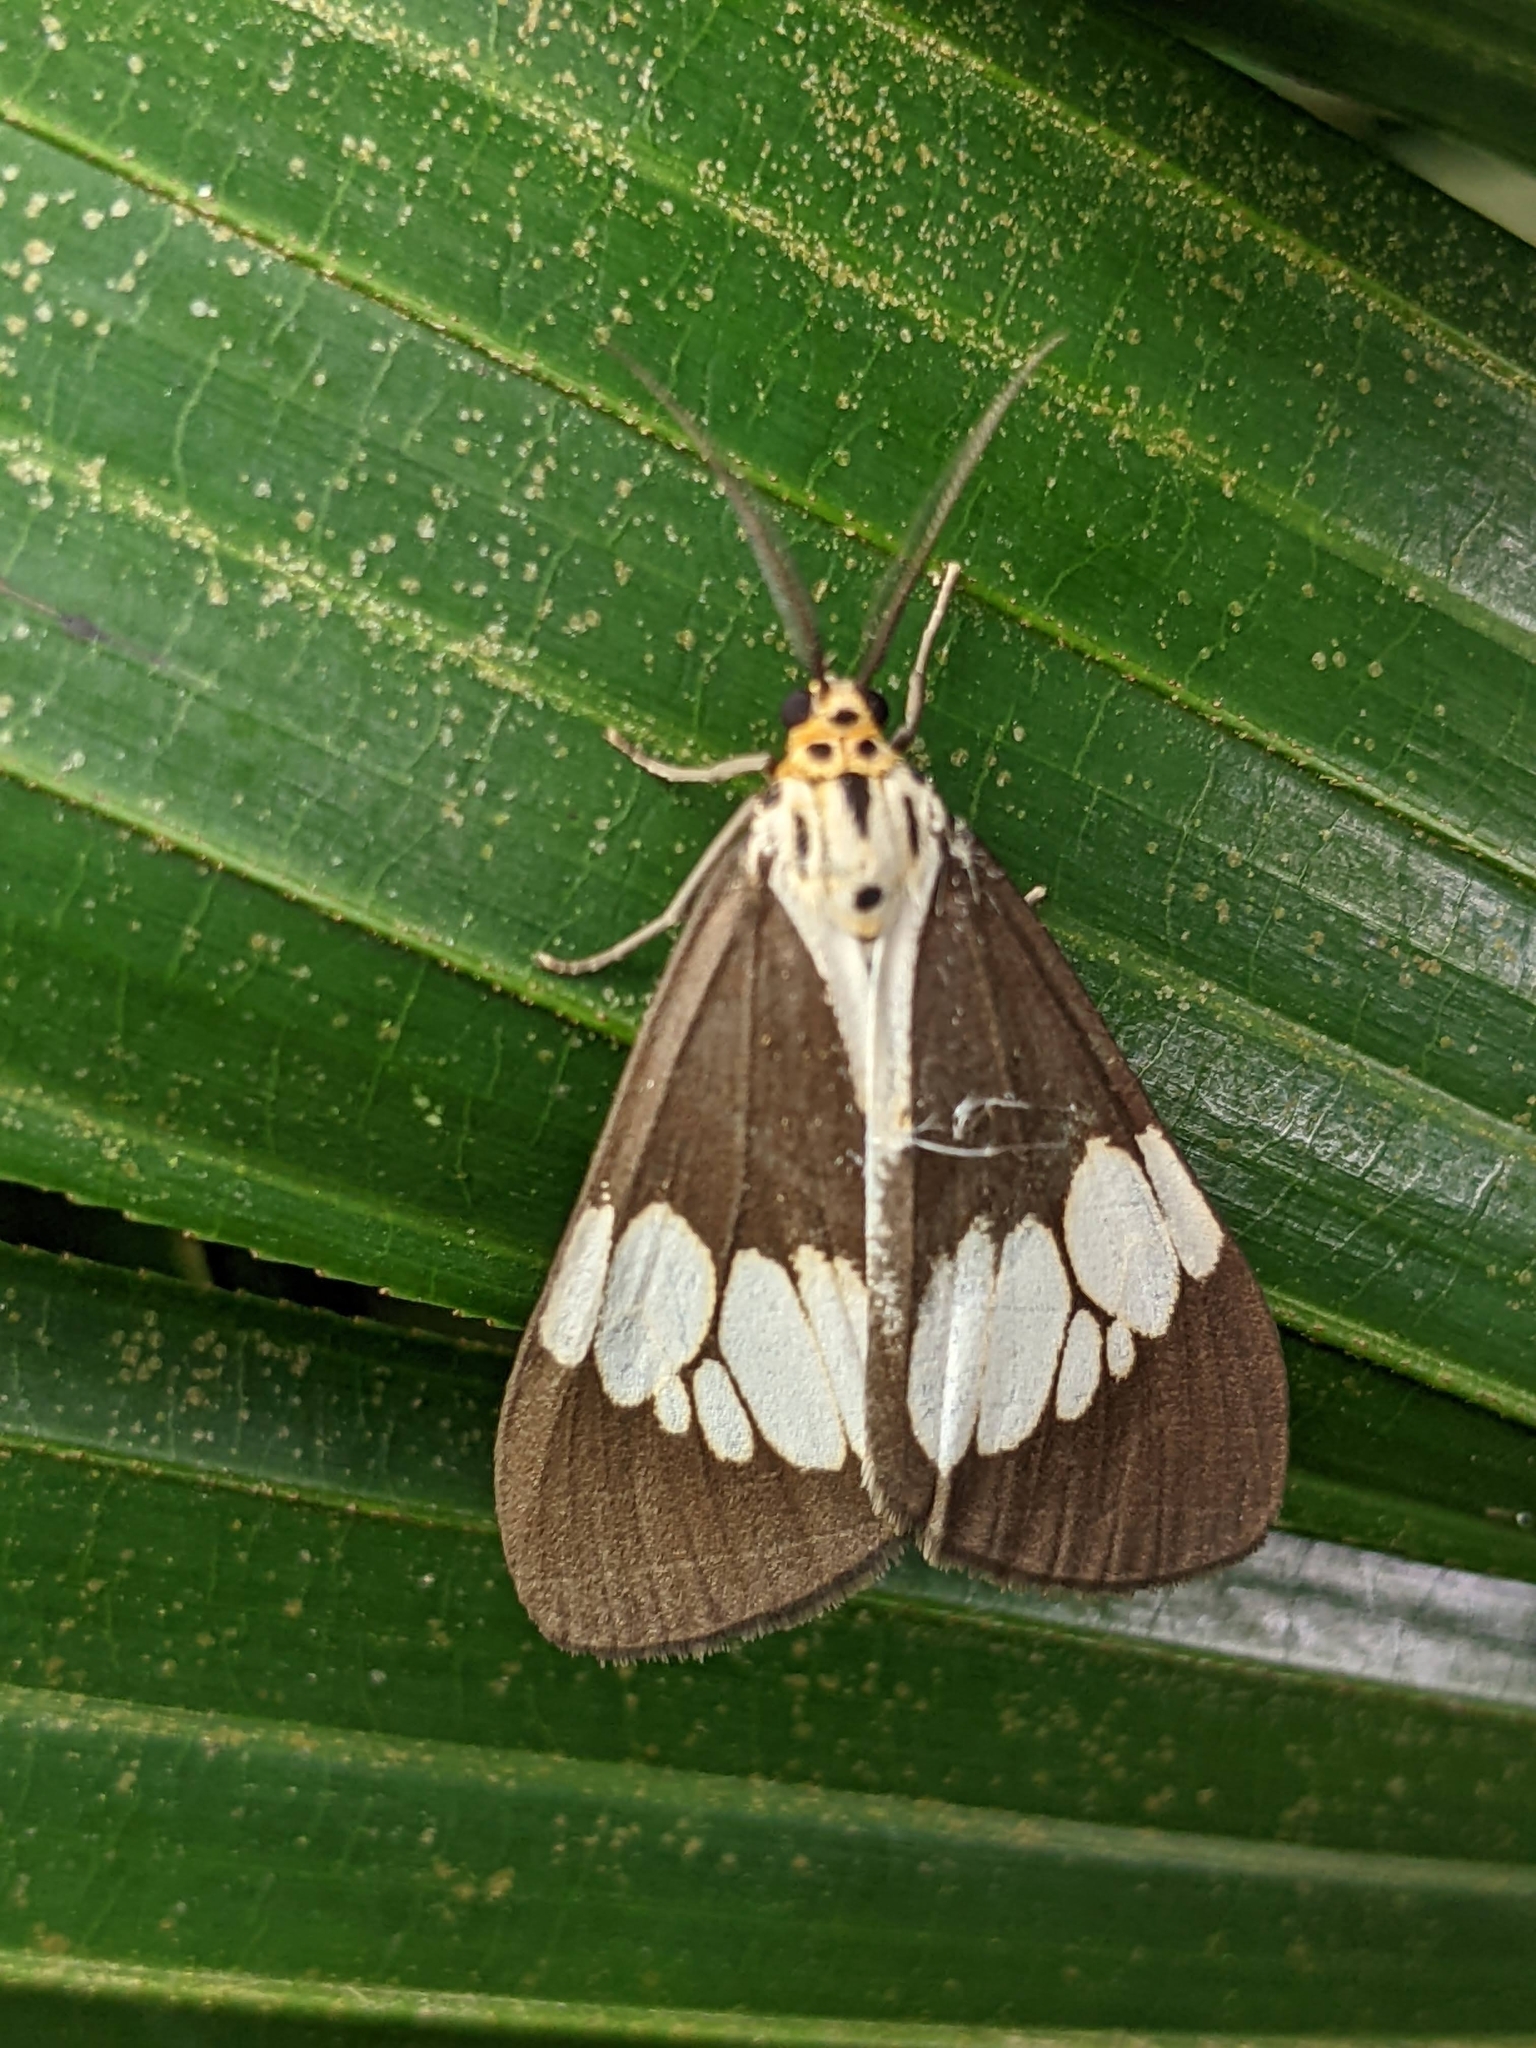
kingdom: Animalia
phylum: Arthropoda
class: Insecta
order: Lepidoptera
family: Erebidae
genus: Nyctemera
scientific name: Nyctemera lacticinia
